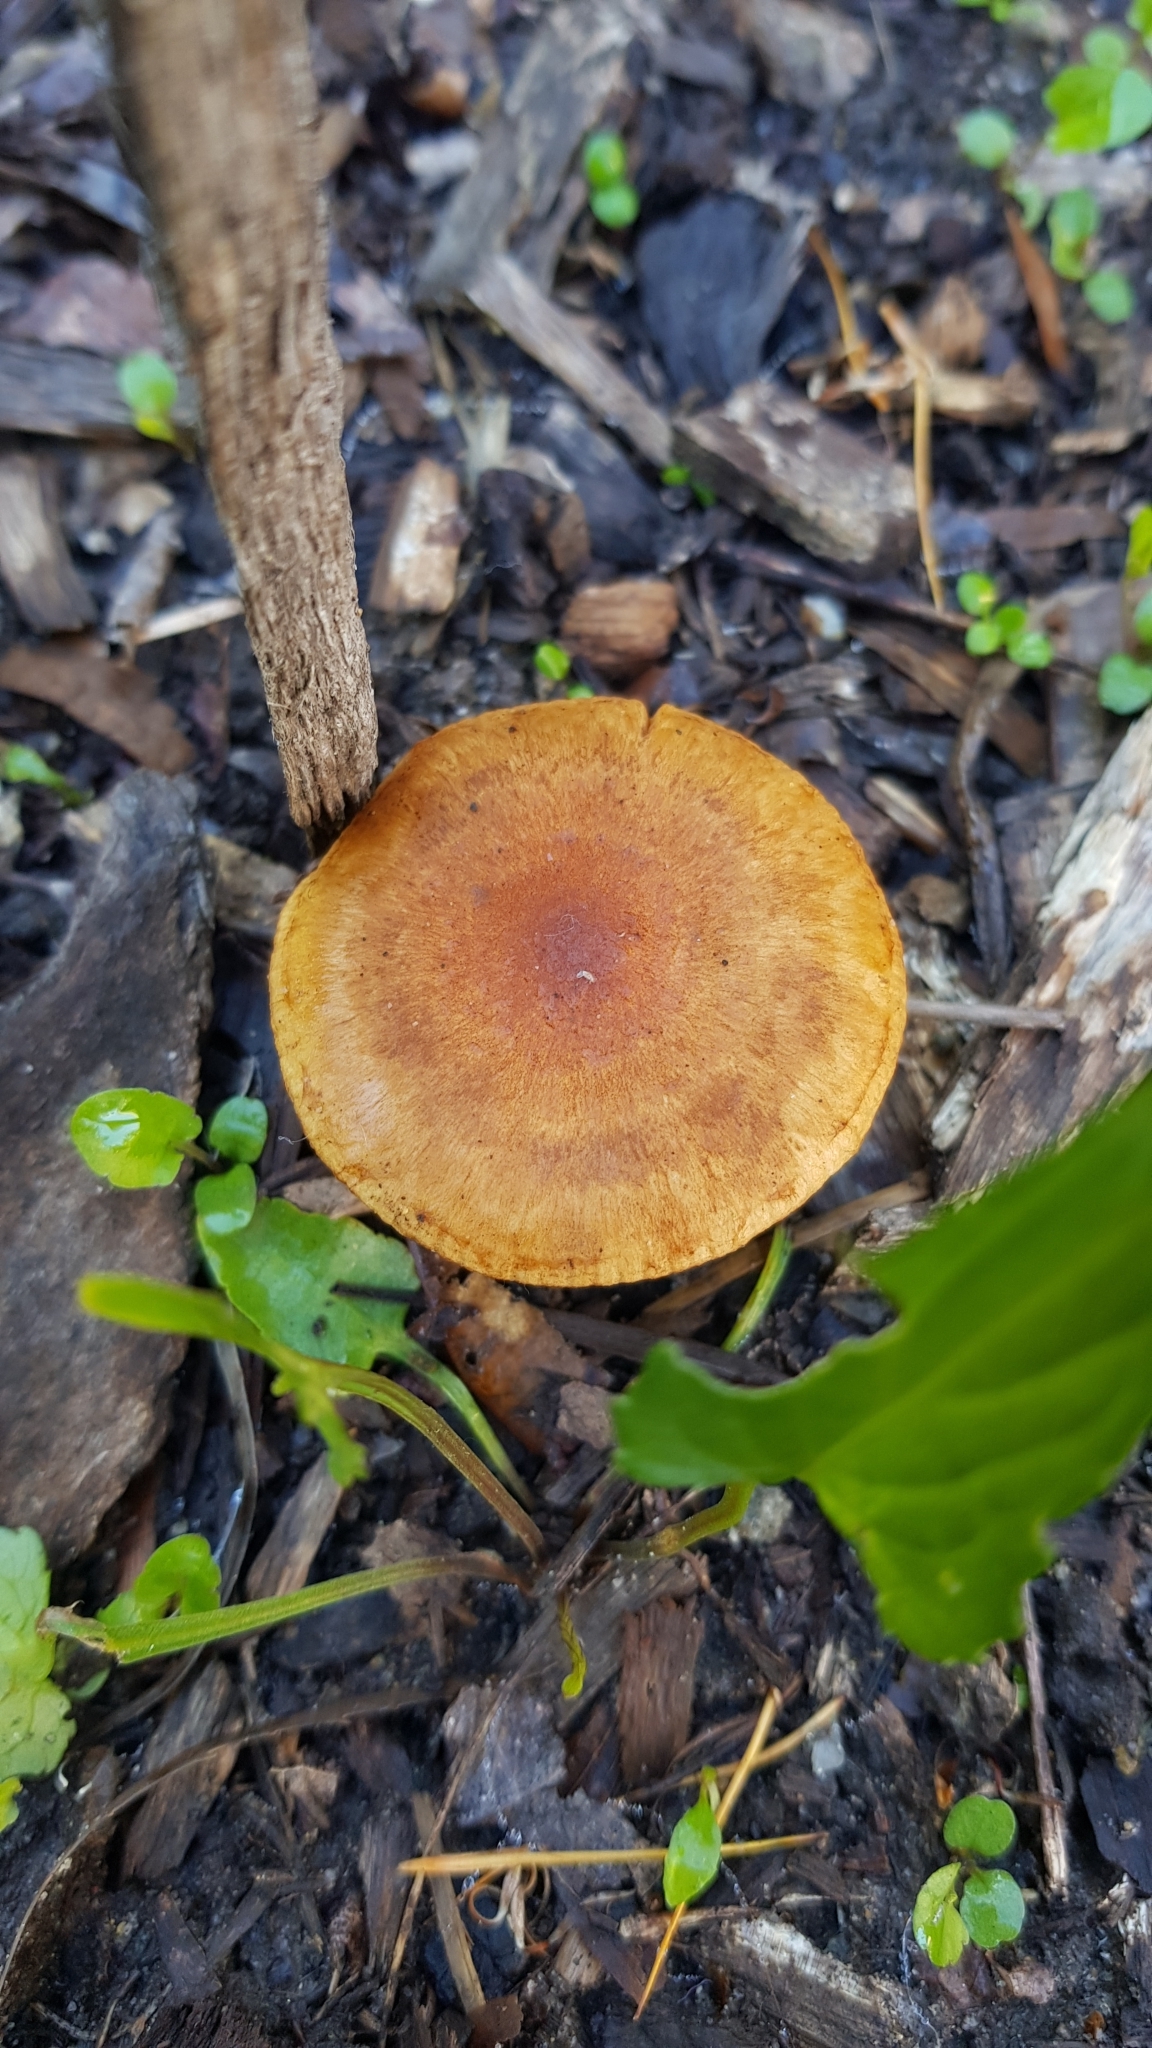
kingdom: Fungi
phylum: Basidiomycota
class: Agaricomycetes
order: Agaricales
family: Strophariaceae
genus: Pholiota
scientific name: Pholiota communis
